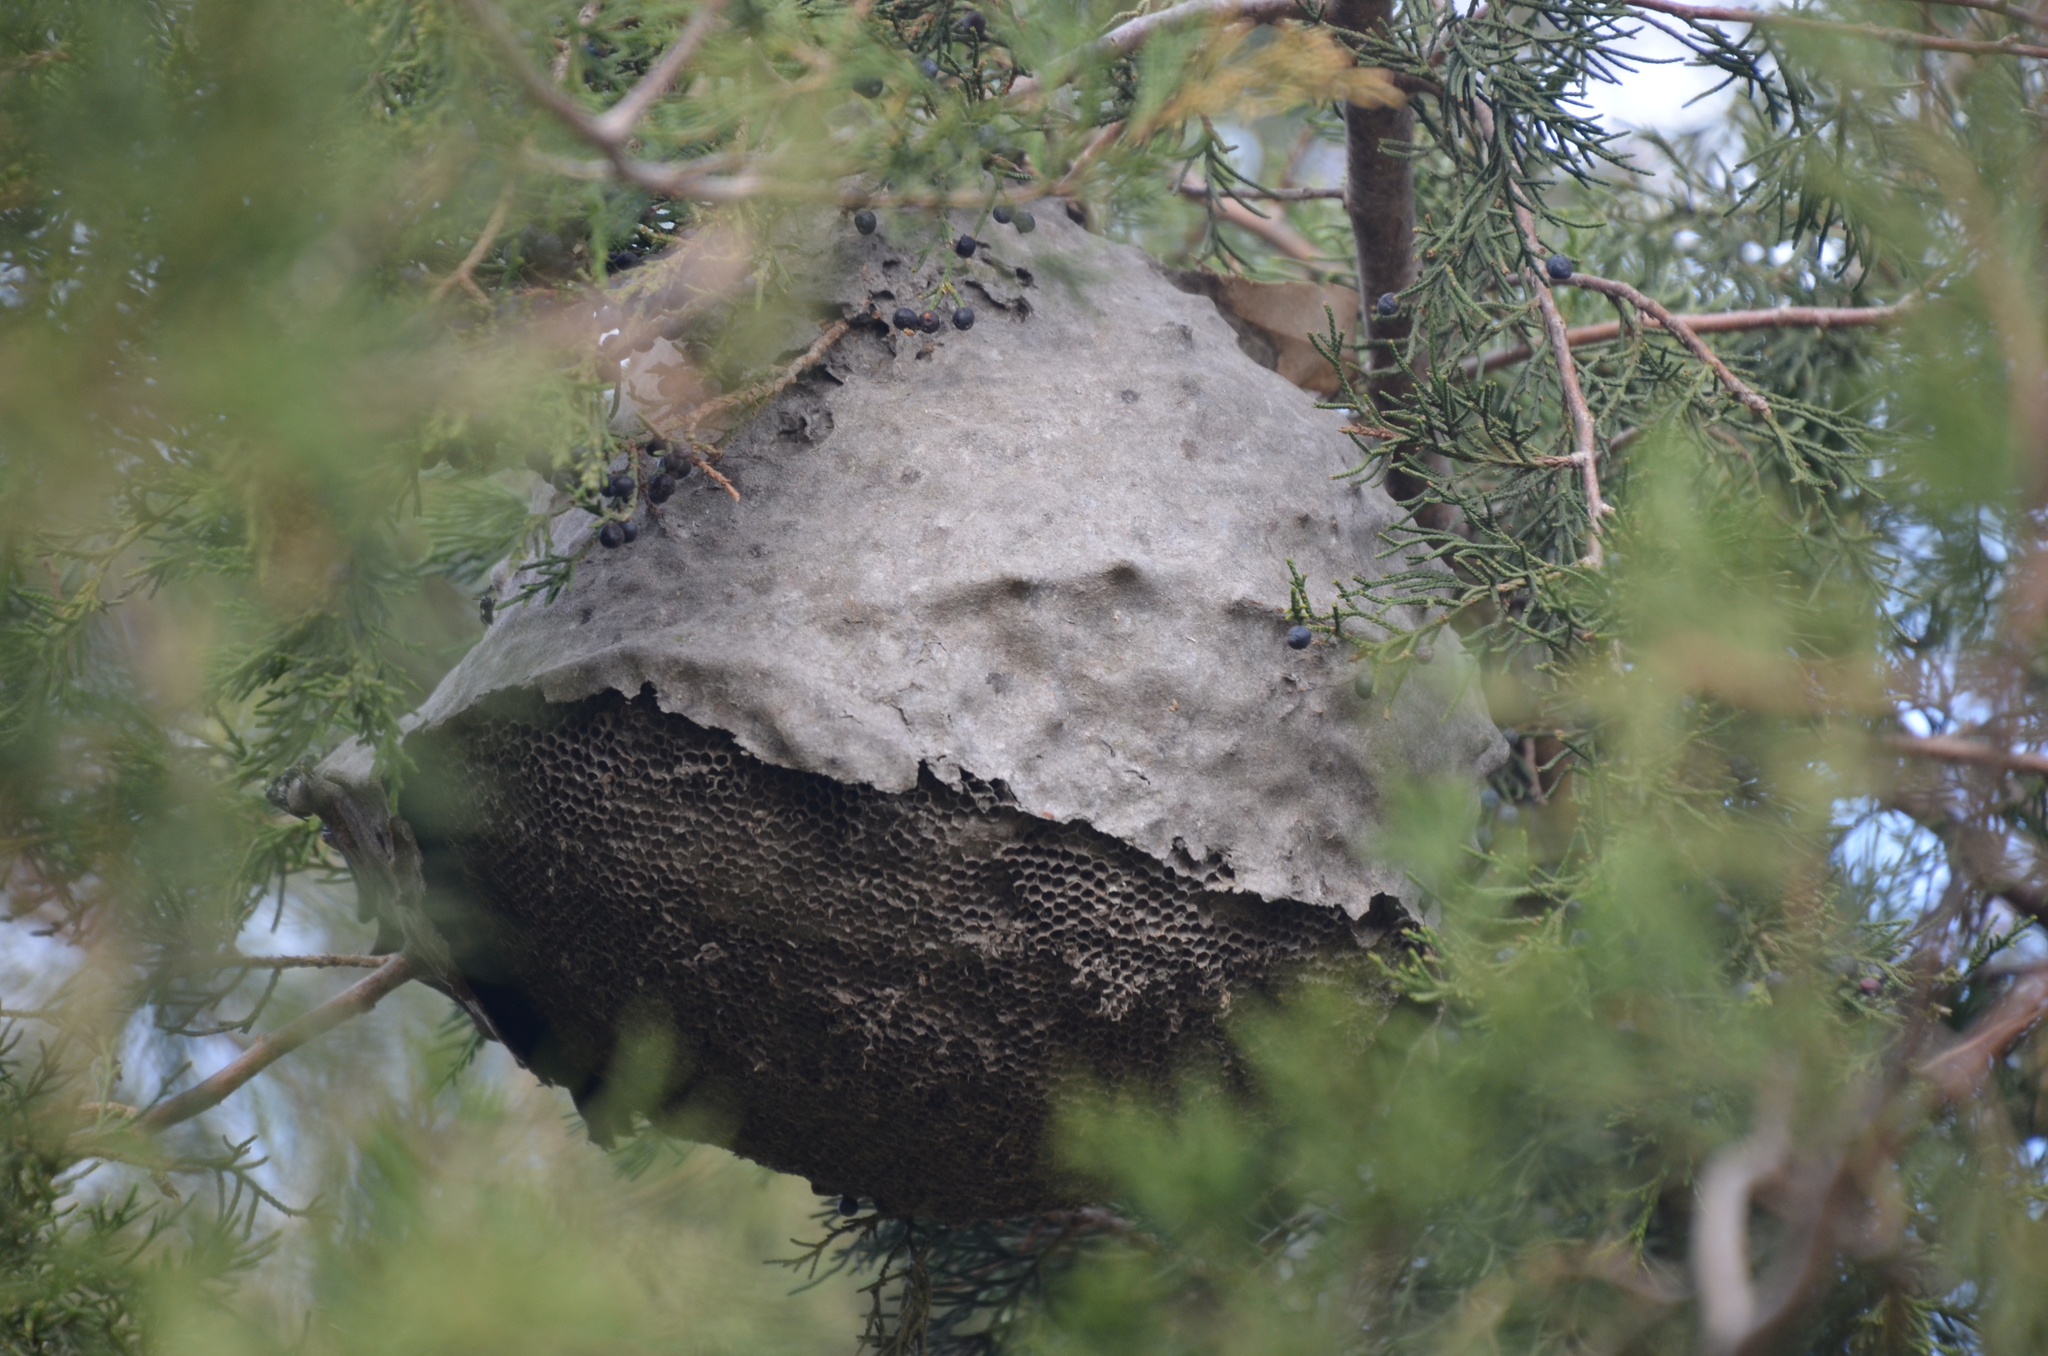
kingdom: Animalia
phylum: Arthropoda
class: Insecta
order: Hymenoptera
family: Eumenidae
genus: Polybia
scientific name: Polybia scutellaris
